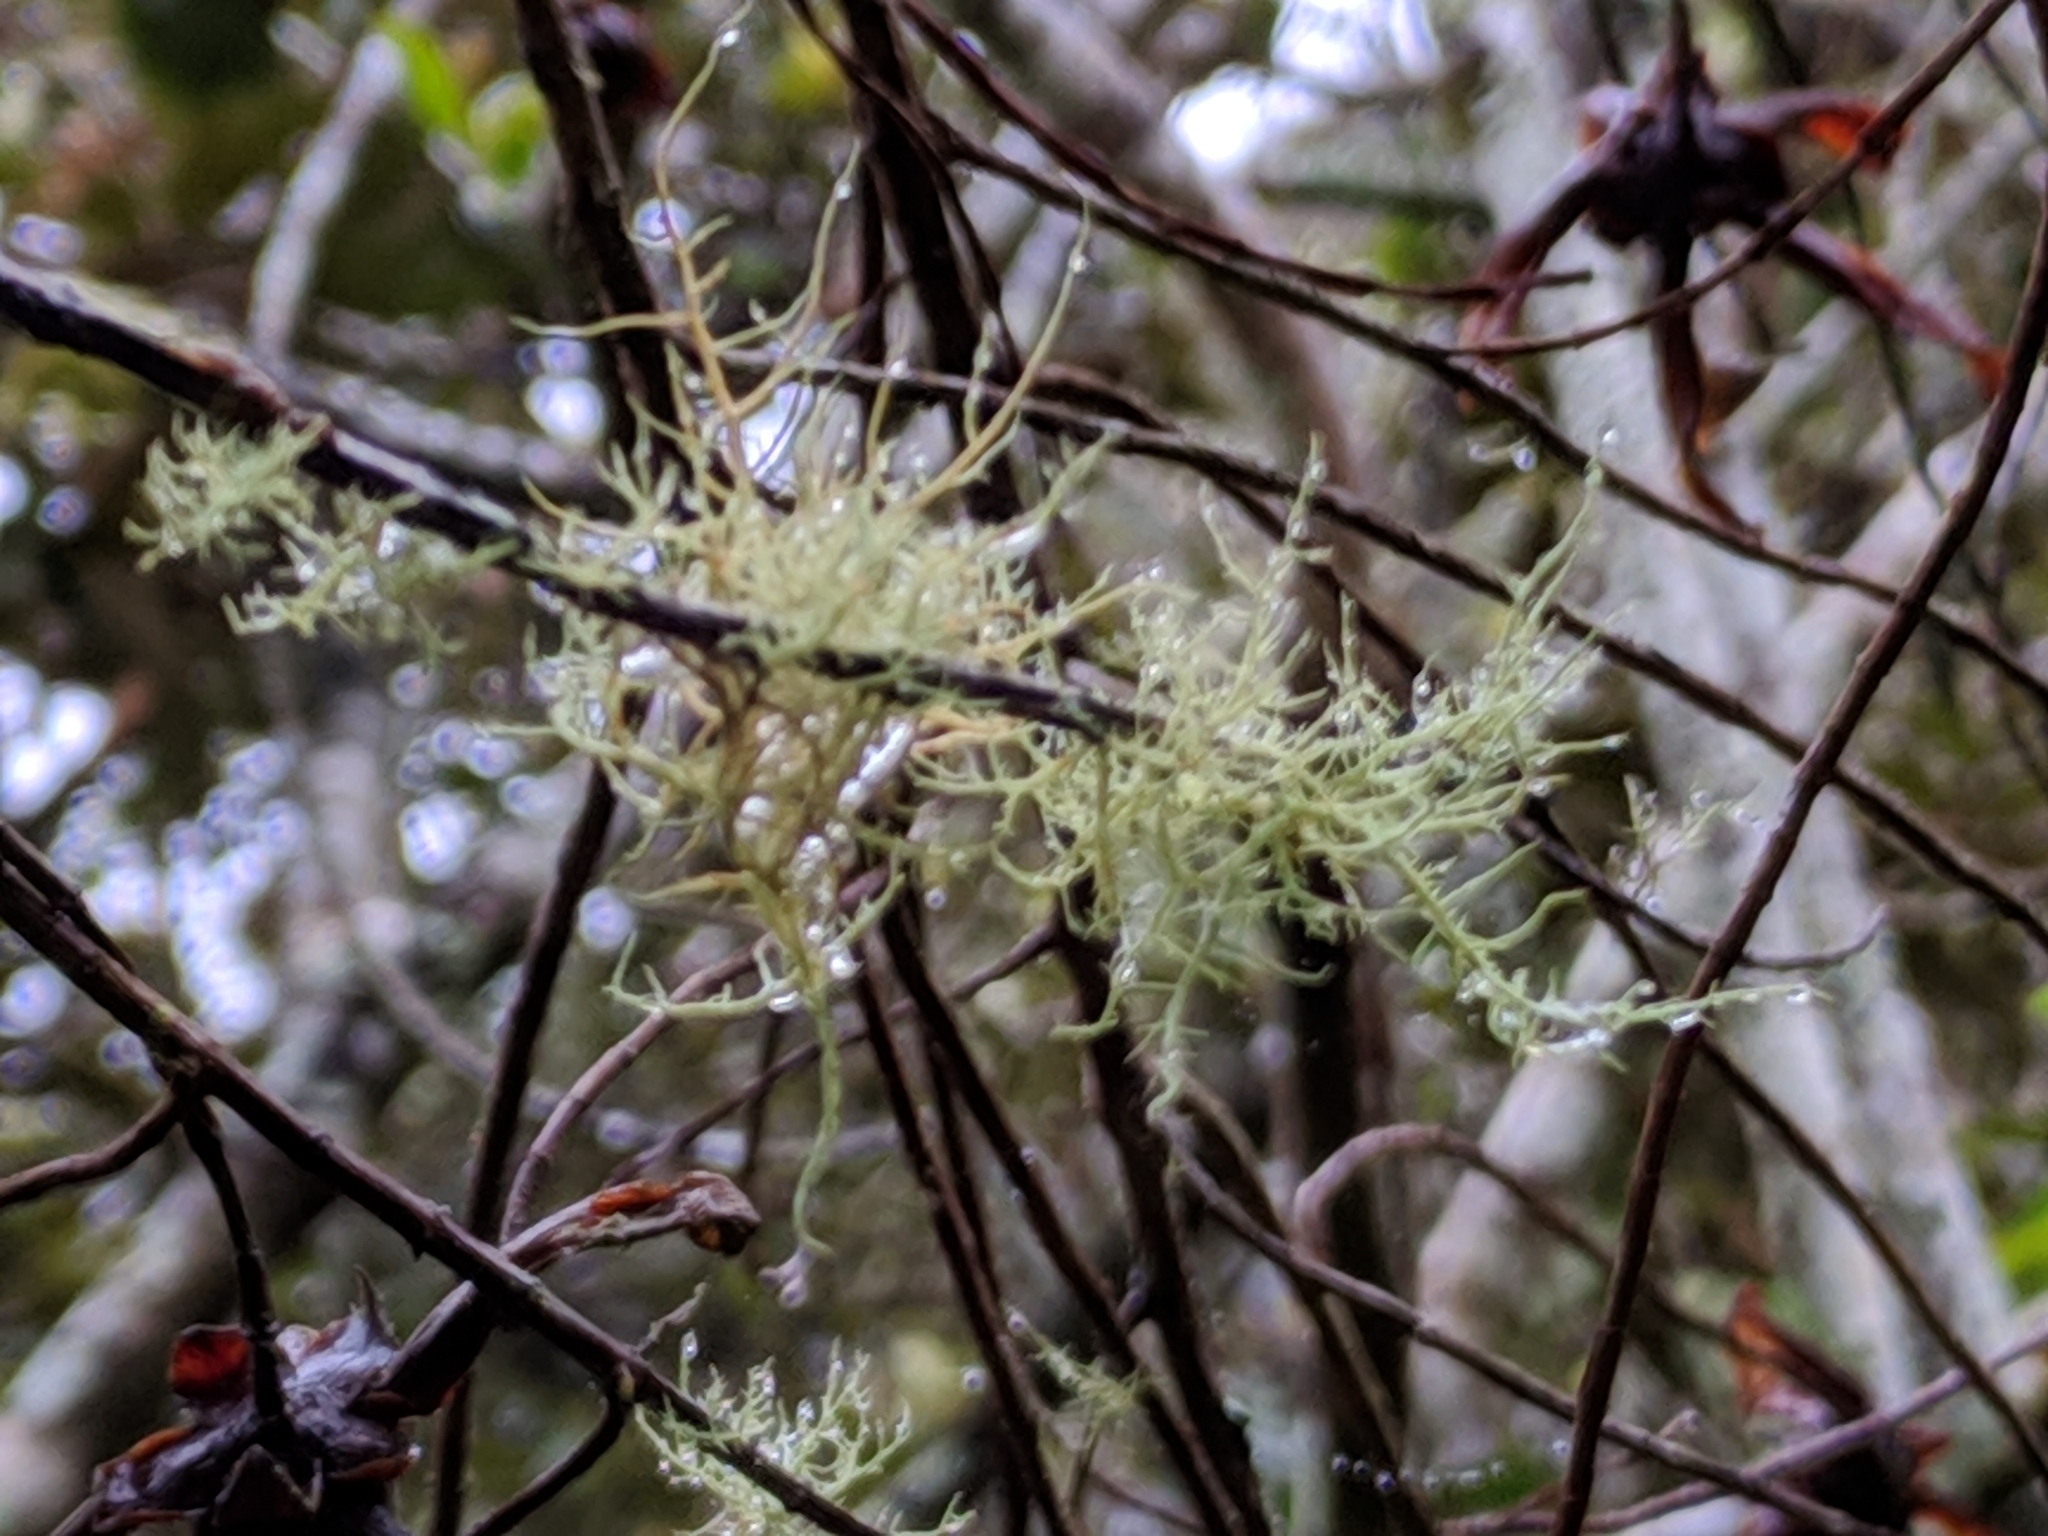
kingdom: Fungi
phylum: Ascomycota
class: Lecanoromycetes
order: Lecanorales
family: Parmeliaceae
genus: Usnea
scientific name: Usnea barbata
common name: Old man's beard lichen
